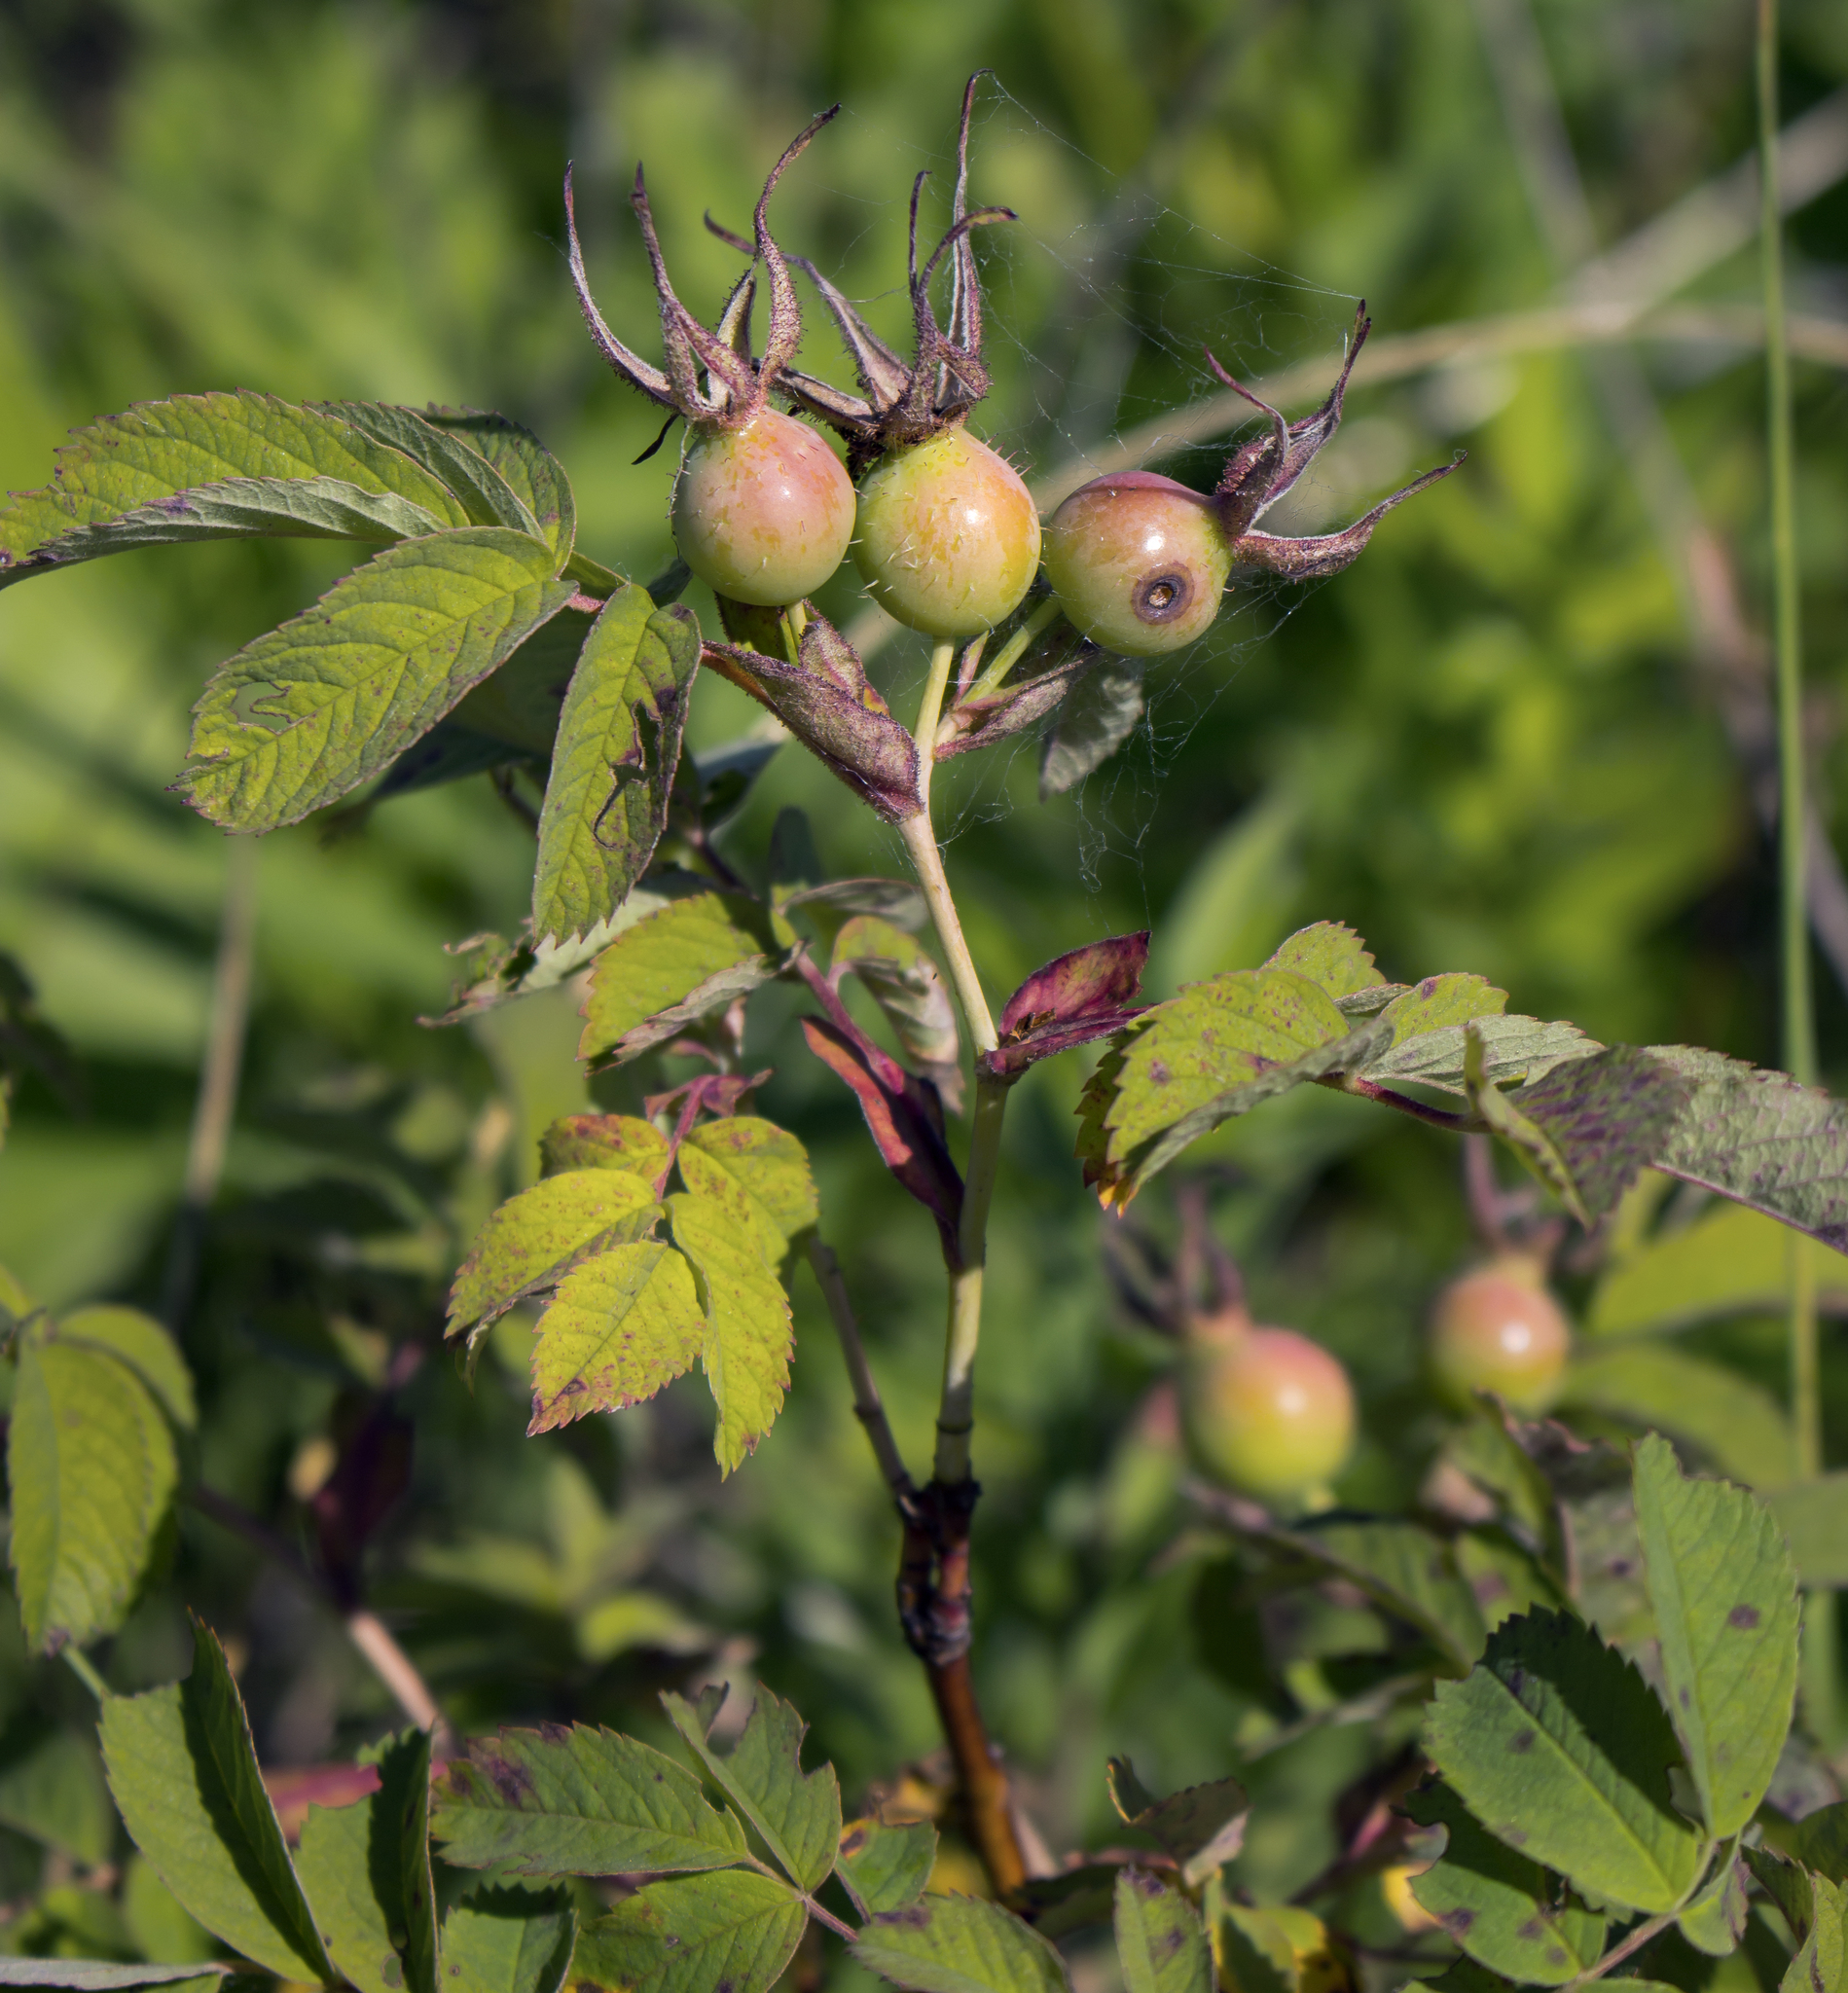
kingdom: Plantae
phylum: Tracheophyta
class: Magnoliopsida
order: Rosales
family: Rosaceae
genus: Rosa
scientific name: Rosa blanda
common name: Smooth rose
